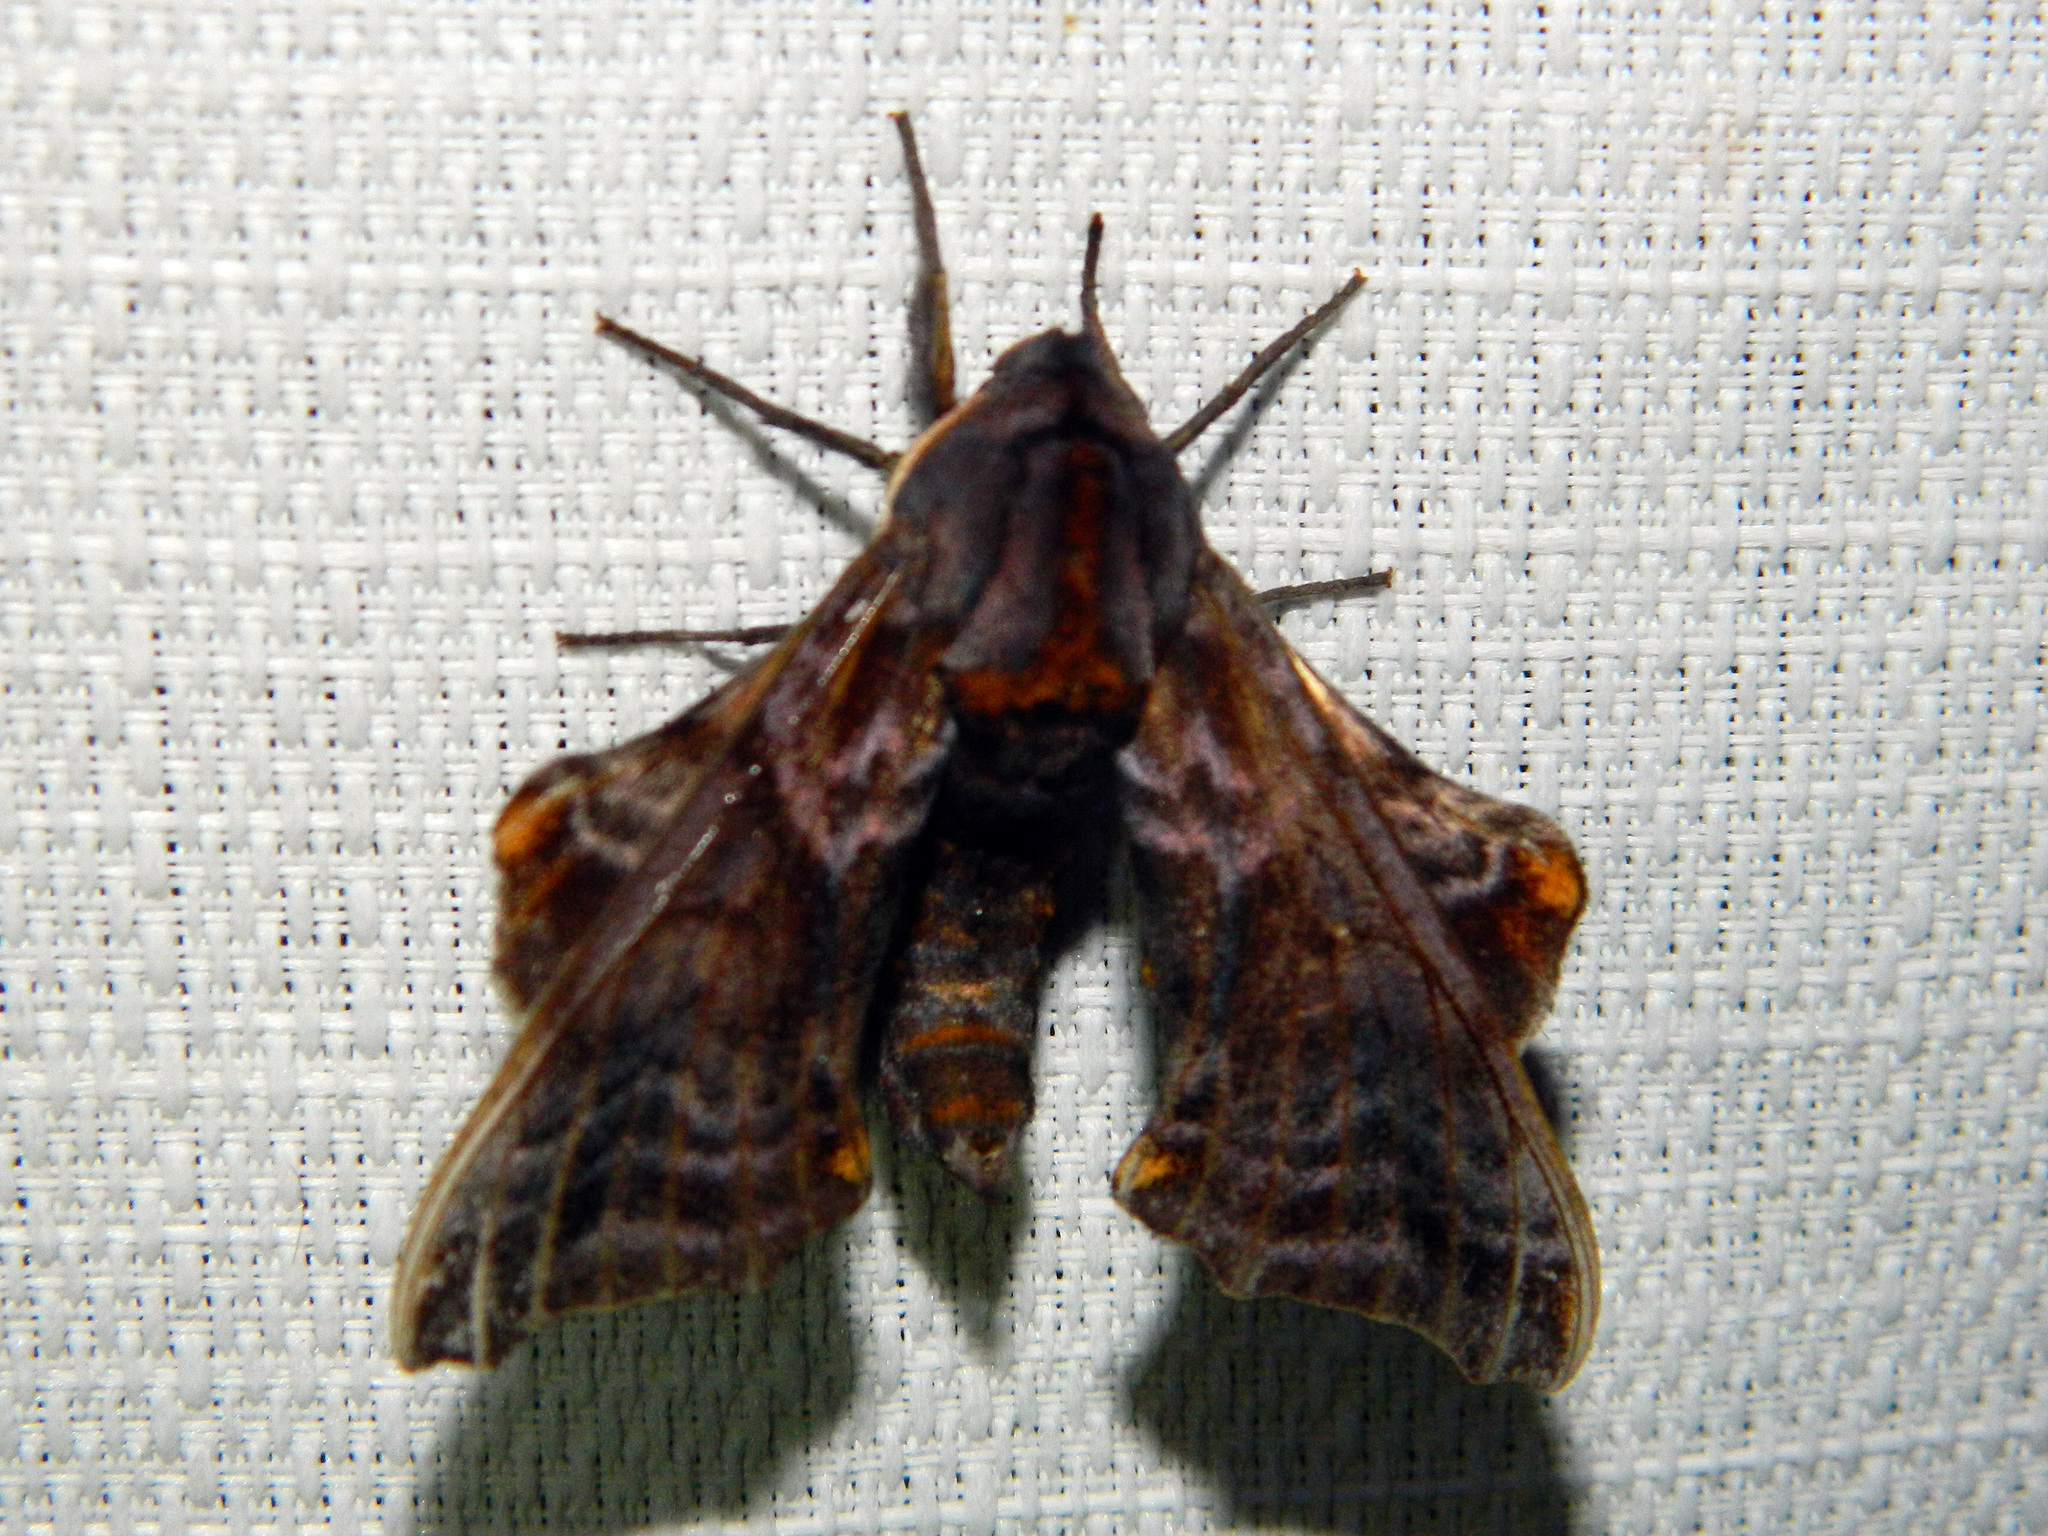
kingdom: Animalia
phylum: Arthropoda
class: Insecta
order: Lepidoptera
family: Sphingidae
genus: Paonias
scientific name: Paonias myops
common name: Small-eyed sphinx
